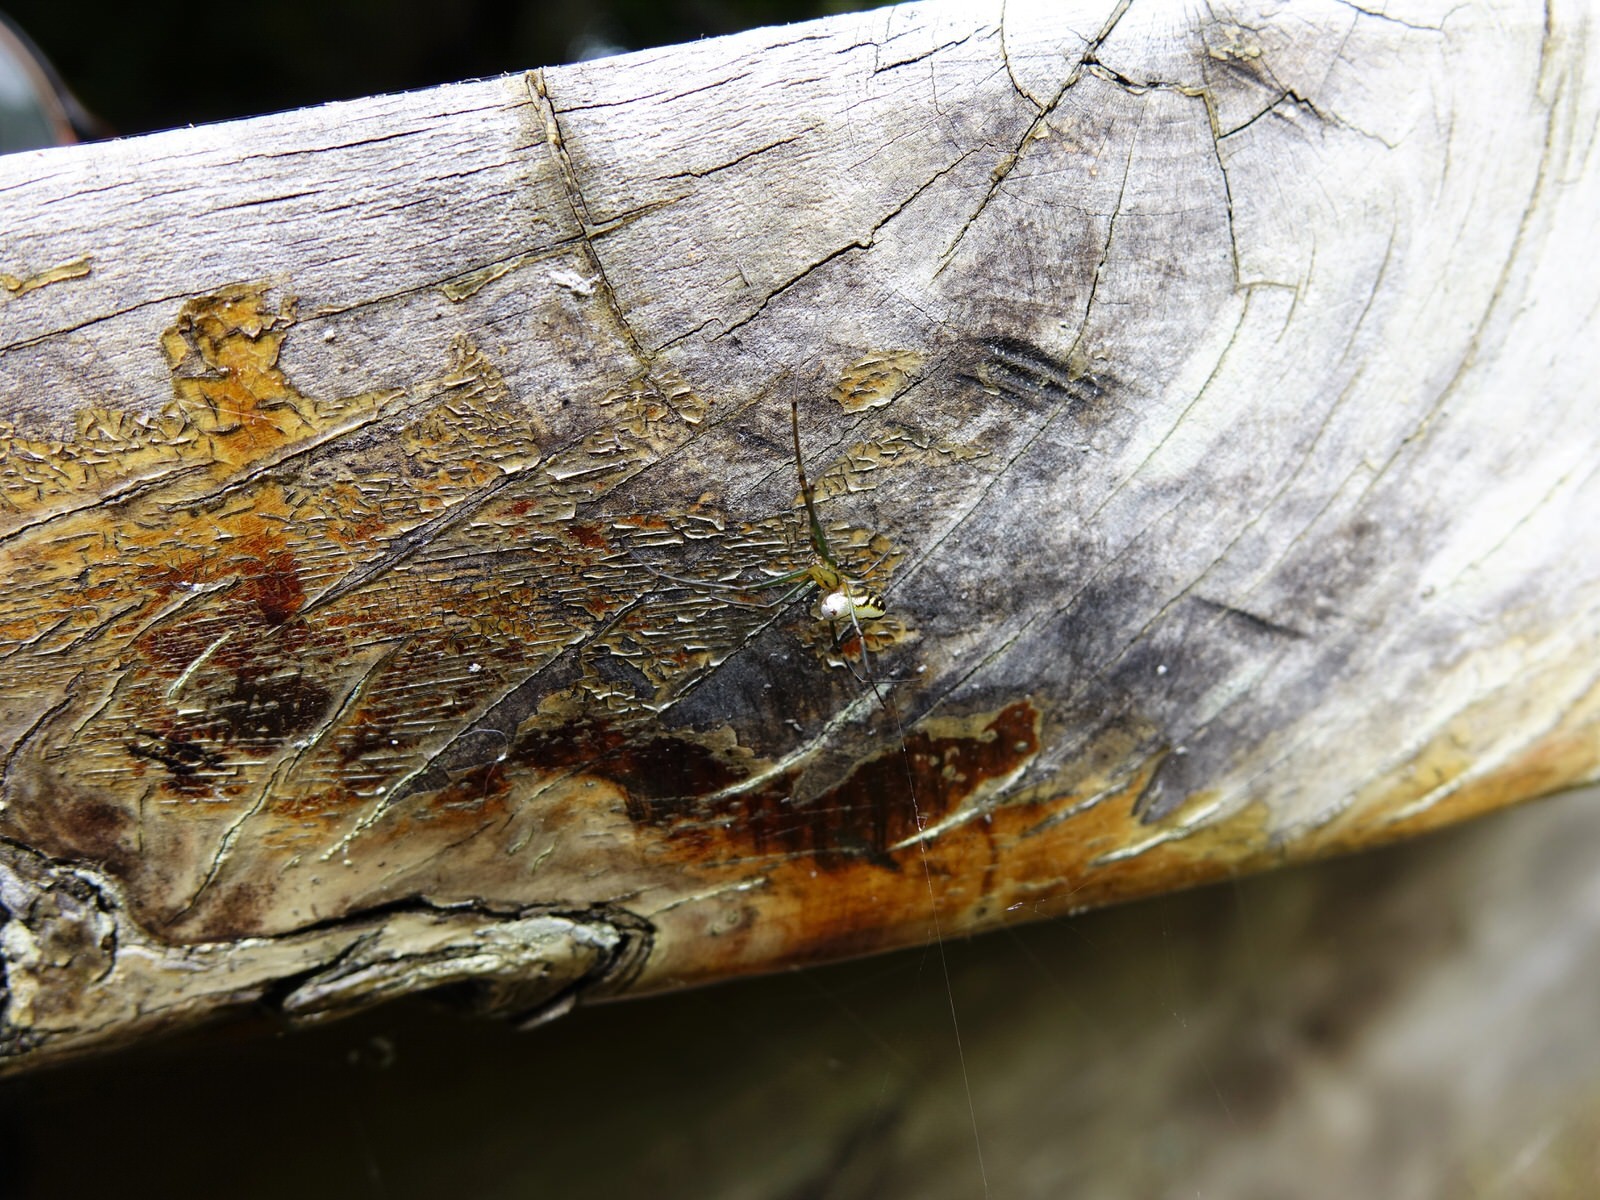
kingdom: Animalia
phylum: Arthropoda
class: Arachnida
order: Araneae
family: Tetragnathidae
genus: Leucauge
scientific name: Leucauge dromedaria
